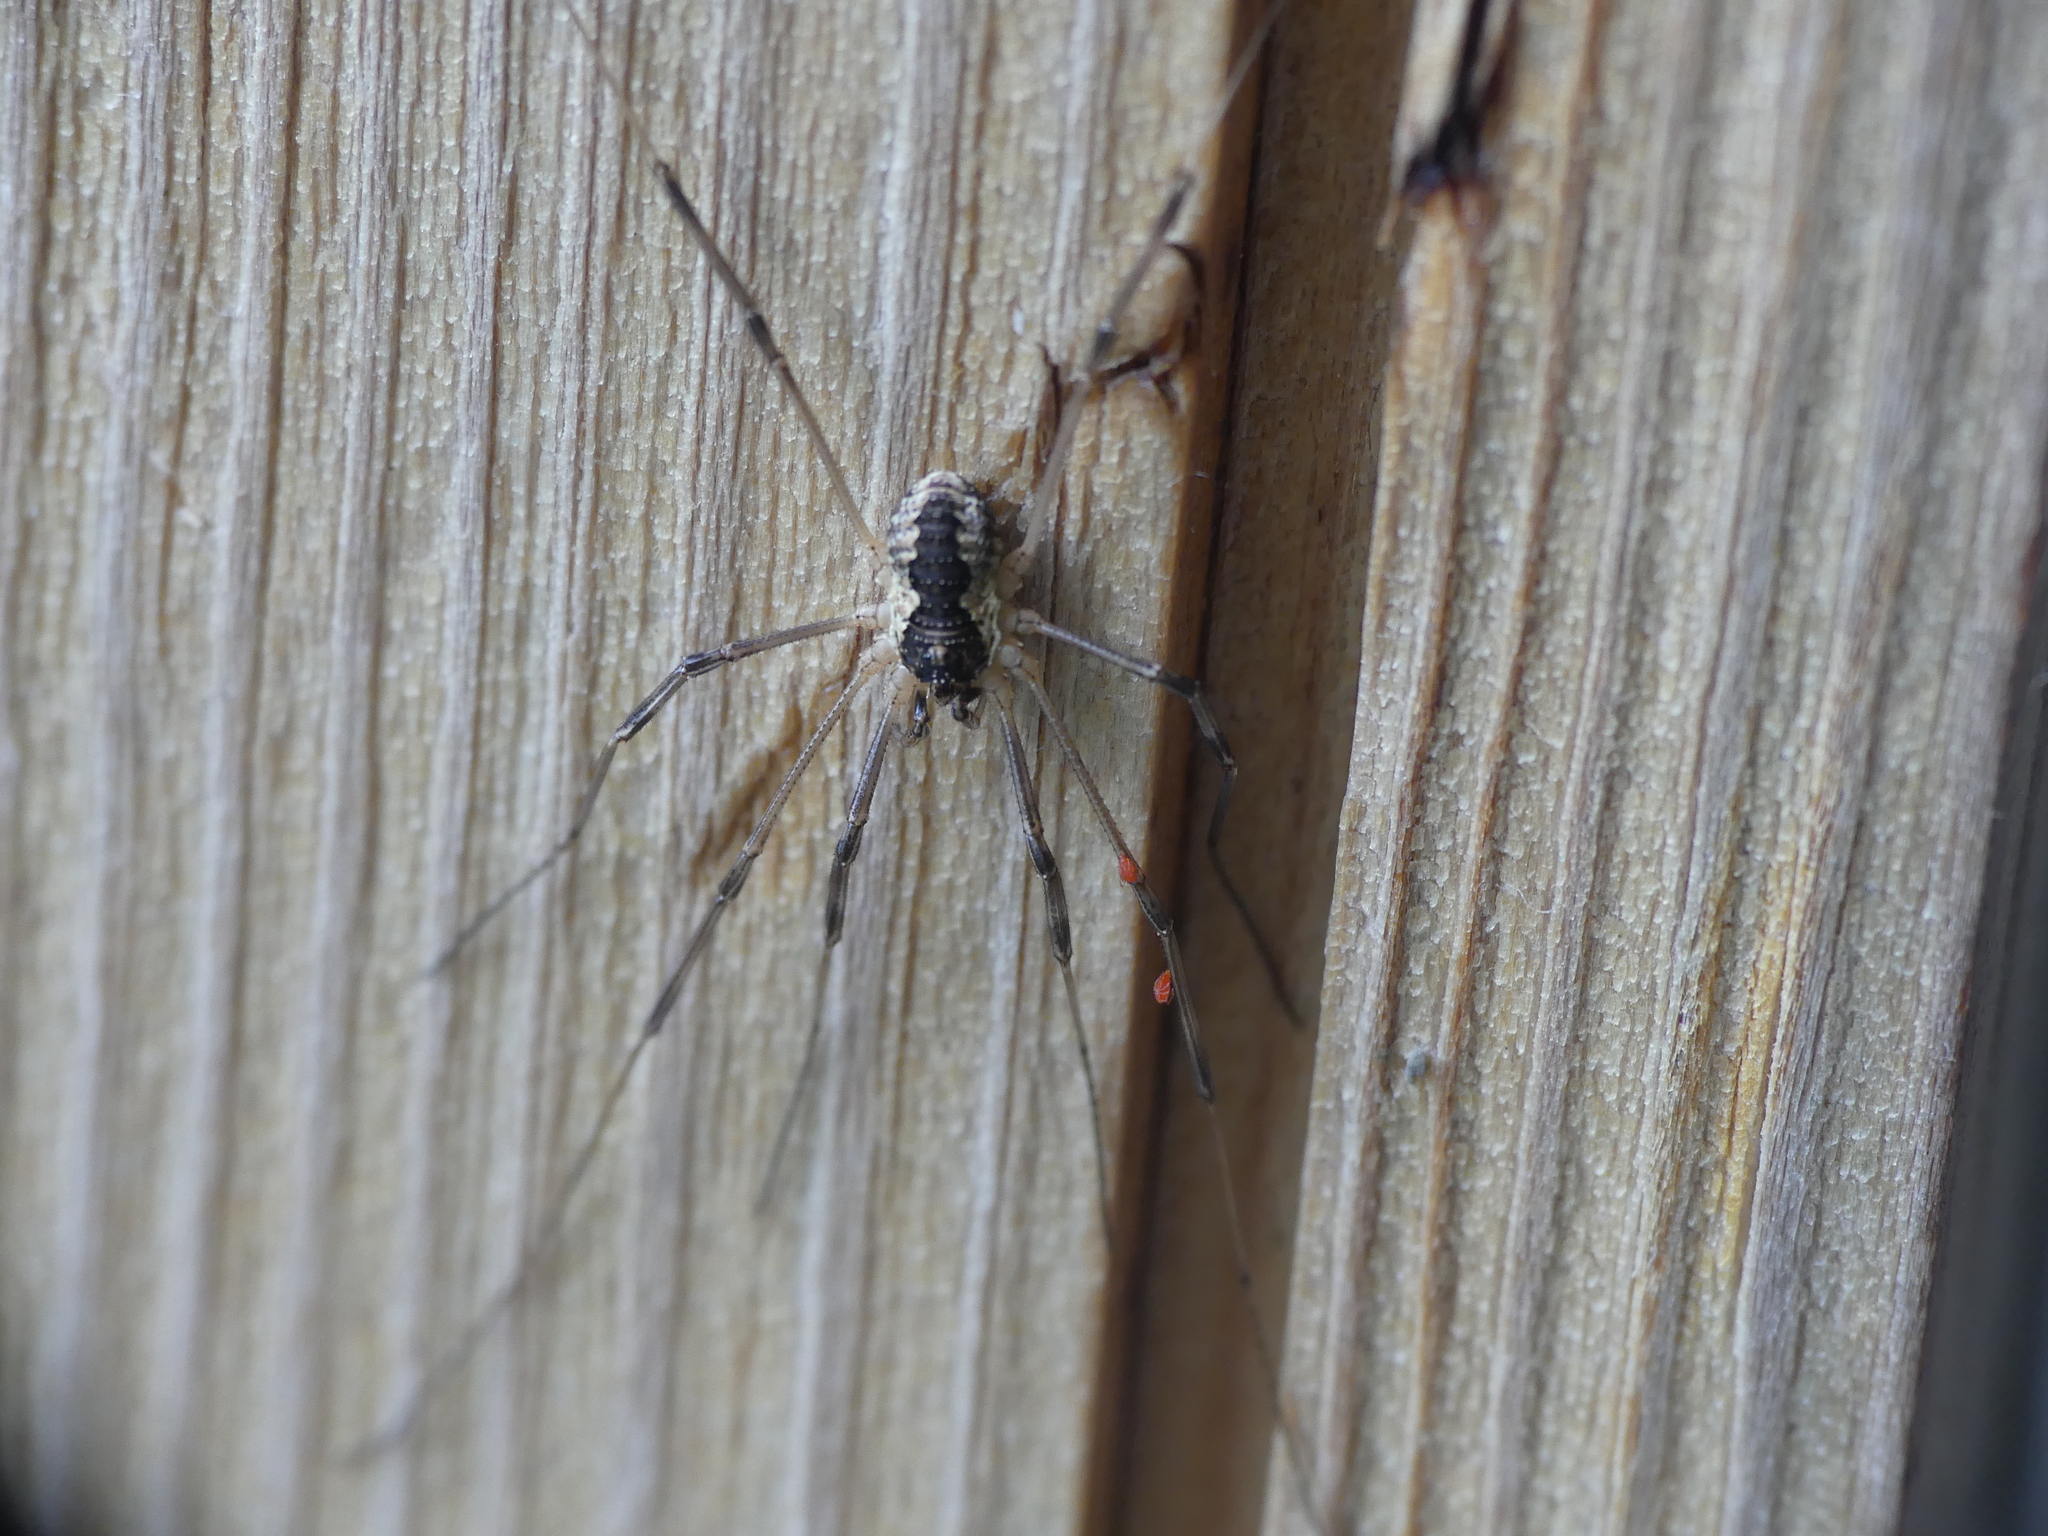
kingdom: Animalia
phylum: Arthropoda
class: Arachnida
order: Opiliones
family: Phalangiidae
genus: Mitopus
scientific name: Mitopus morio
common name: Saddleback harvestman
